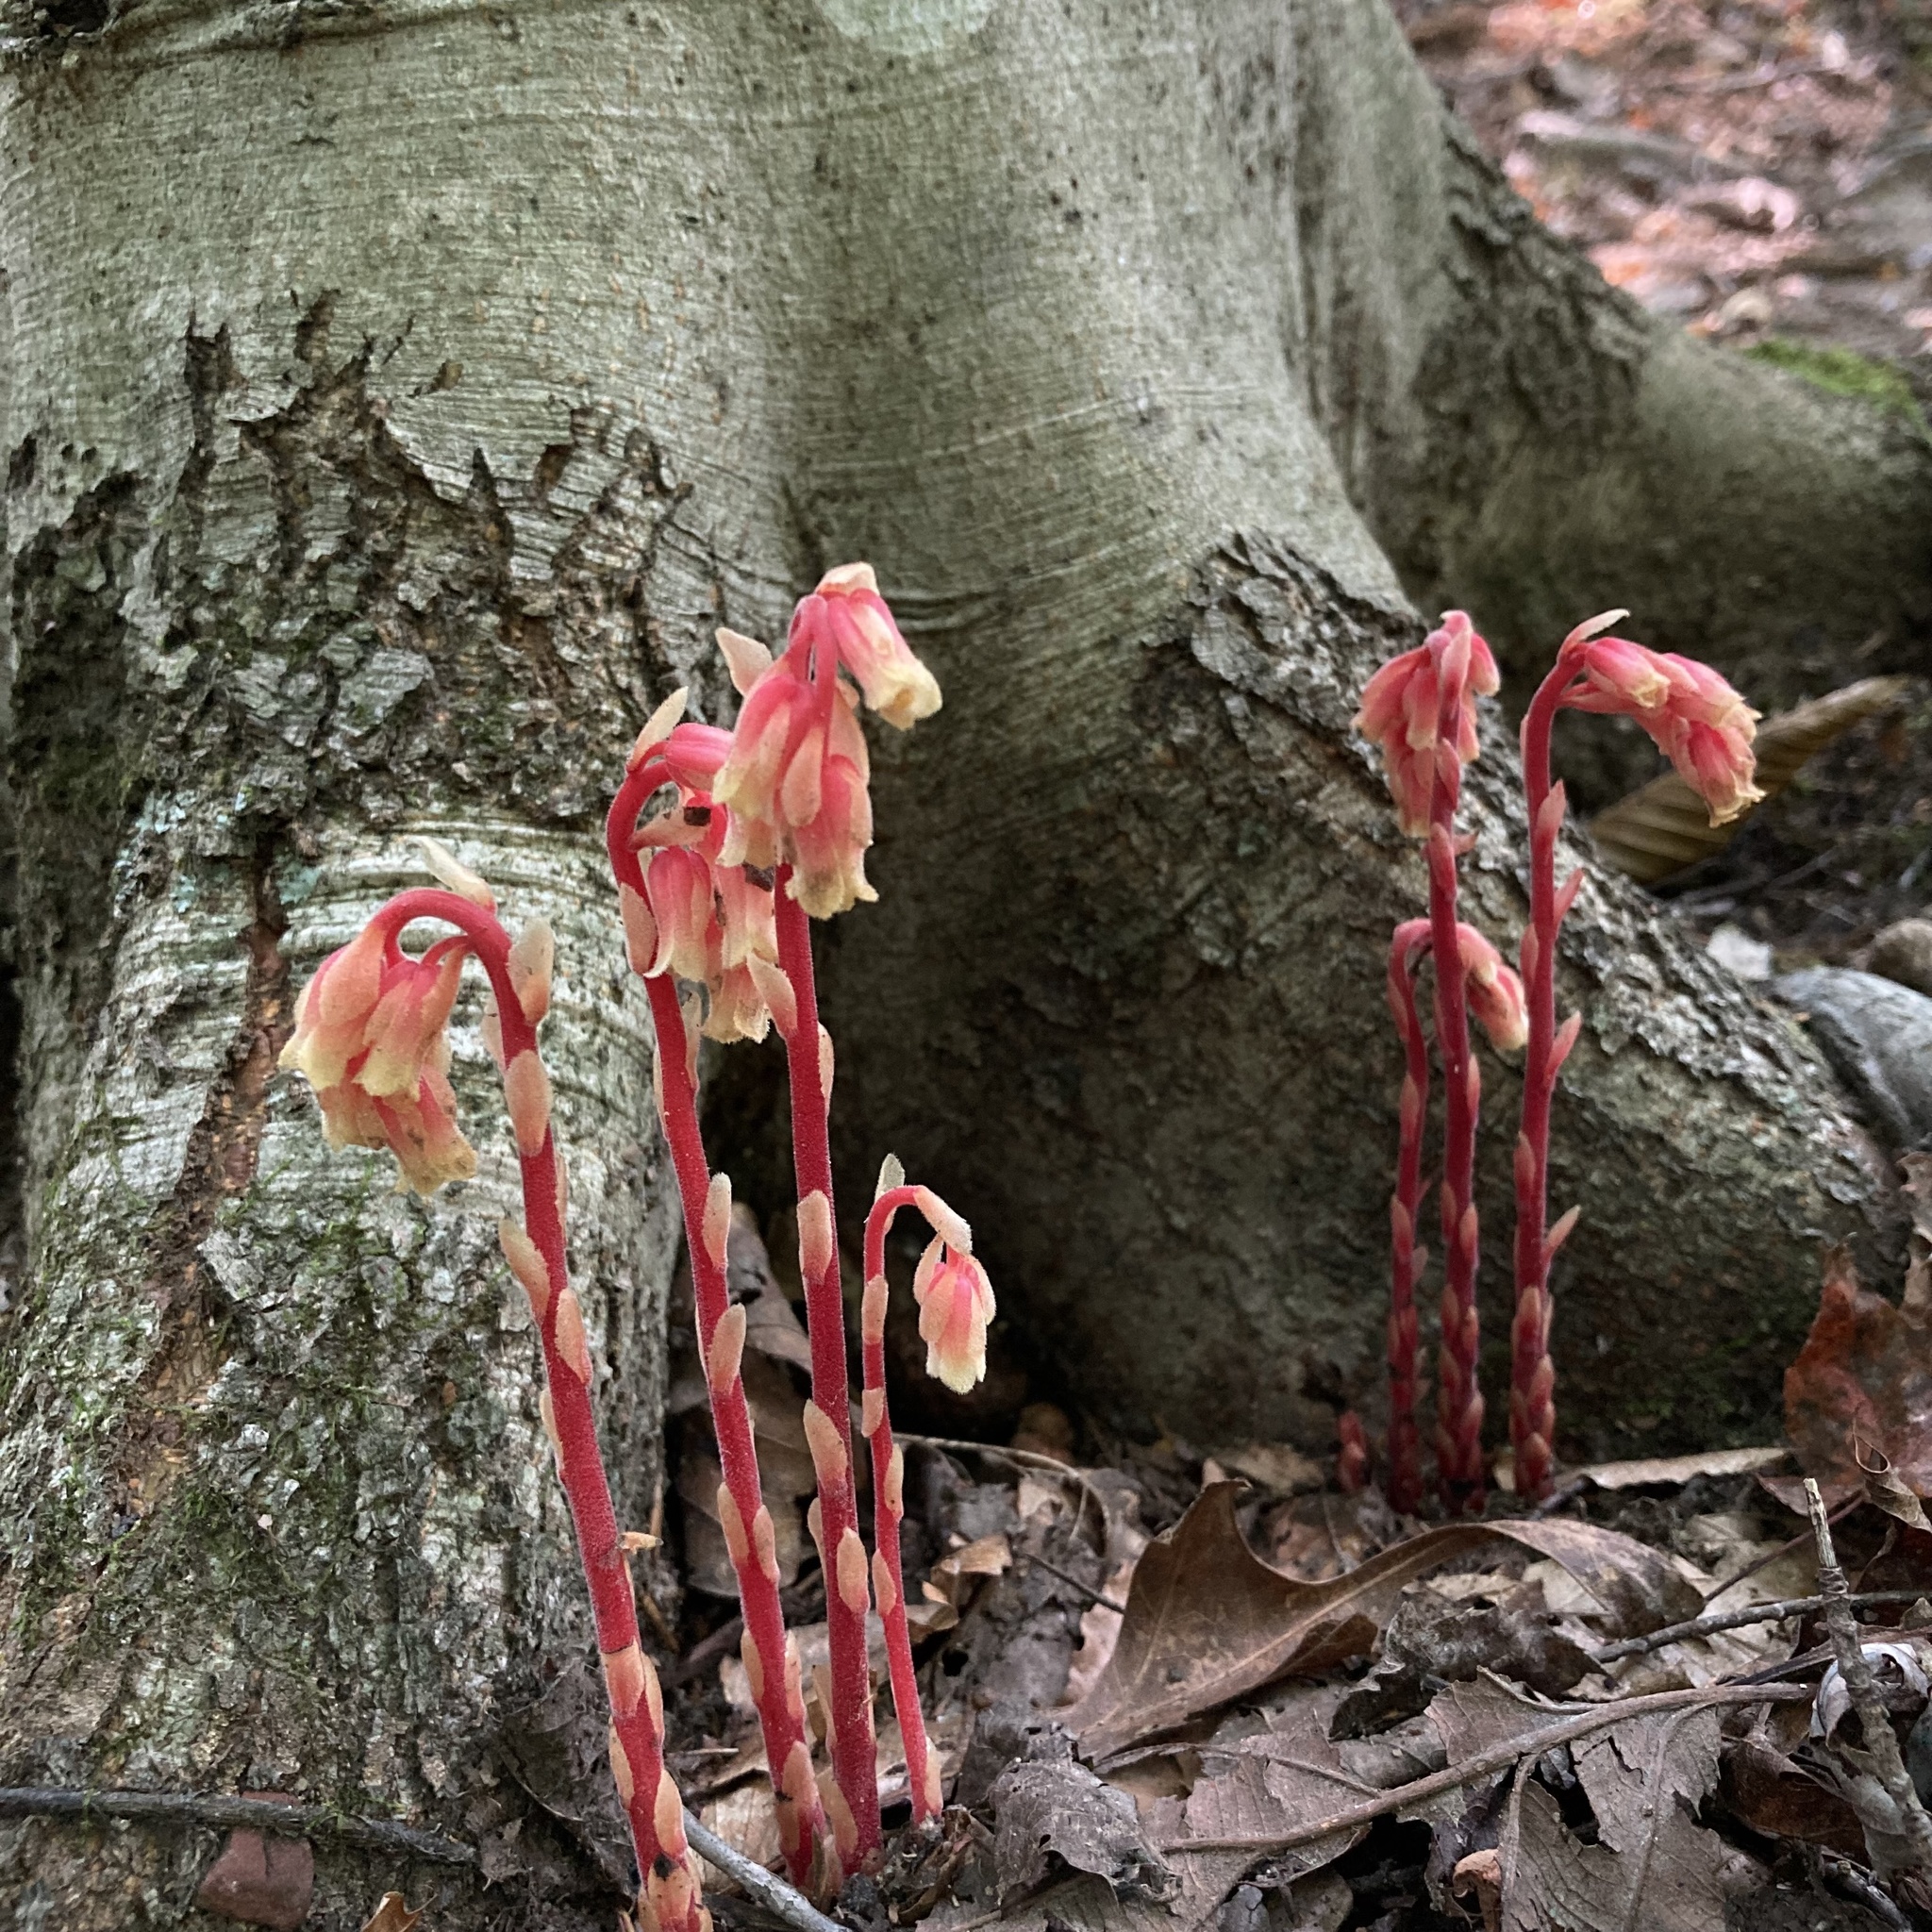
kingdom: Plantae
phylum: Tracheophyta
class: Magnoliopsida
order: Ericales
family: Ericaceae
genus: Hypopitys
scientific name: Hypopitys monotropa
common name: Yellow bird's-nest
